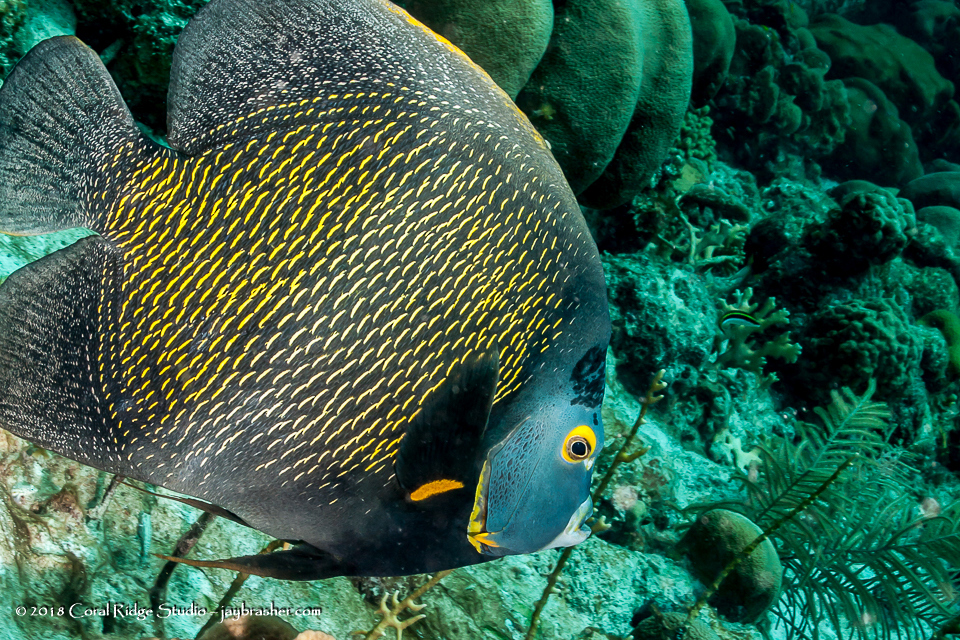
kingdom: Animalia
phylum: Chordata
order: Perciformes
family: Pomacanthidae
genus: Pomacanthus
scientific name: Pomacanthus paru
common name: French angelfish
